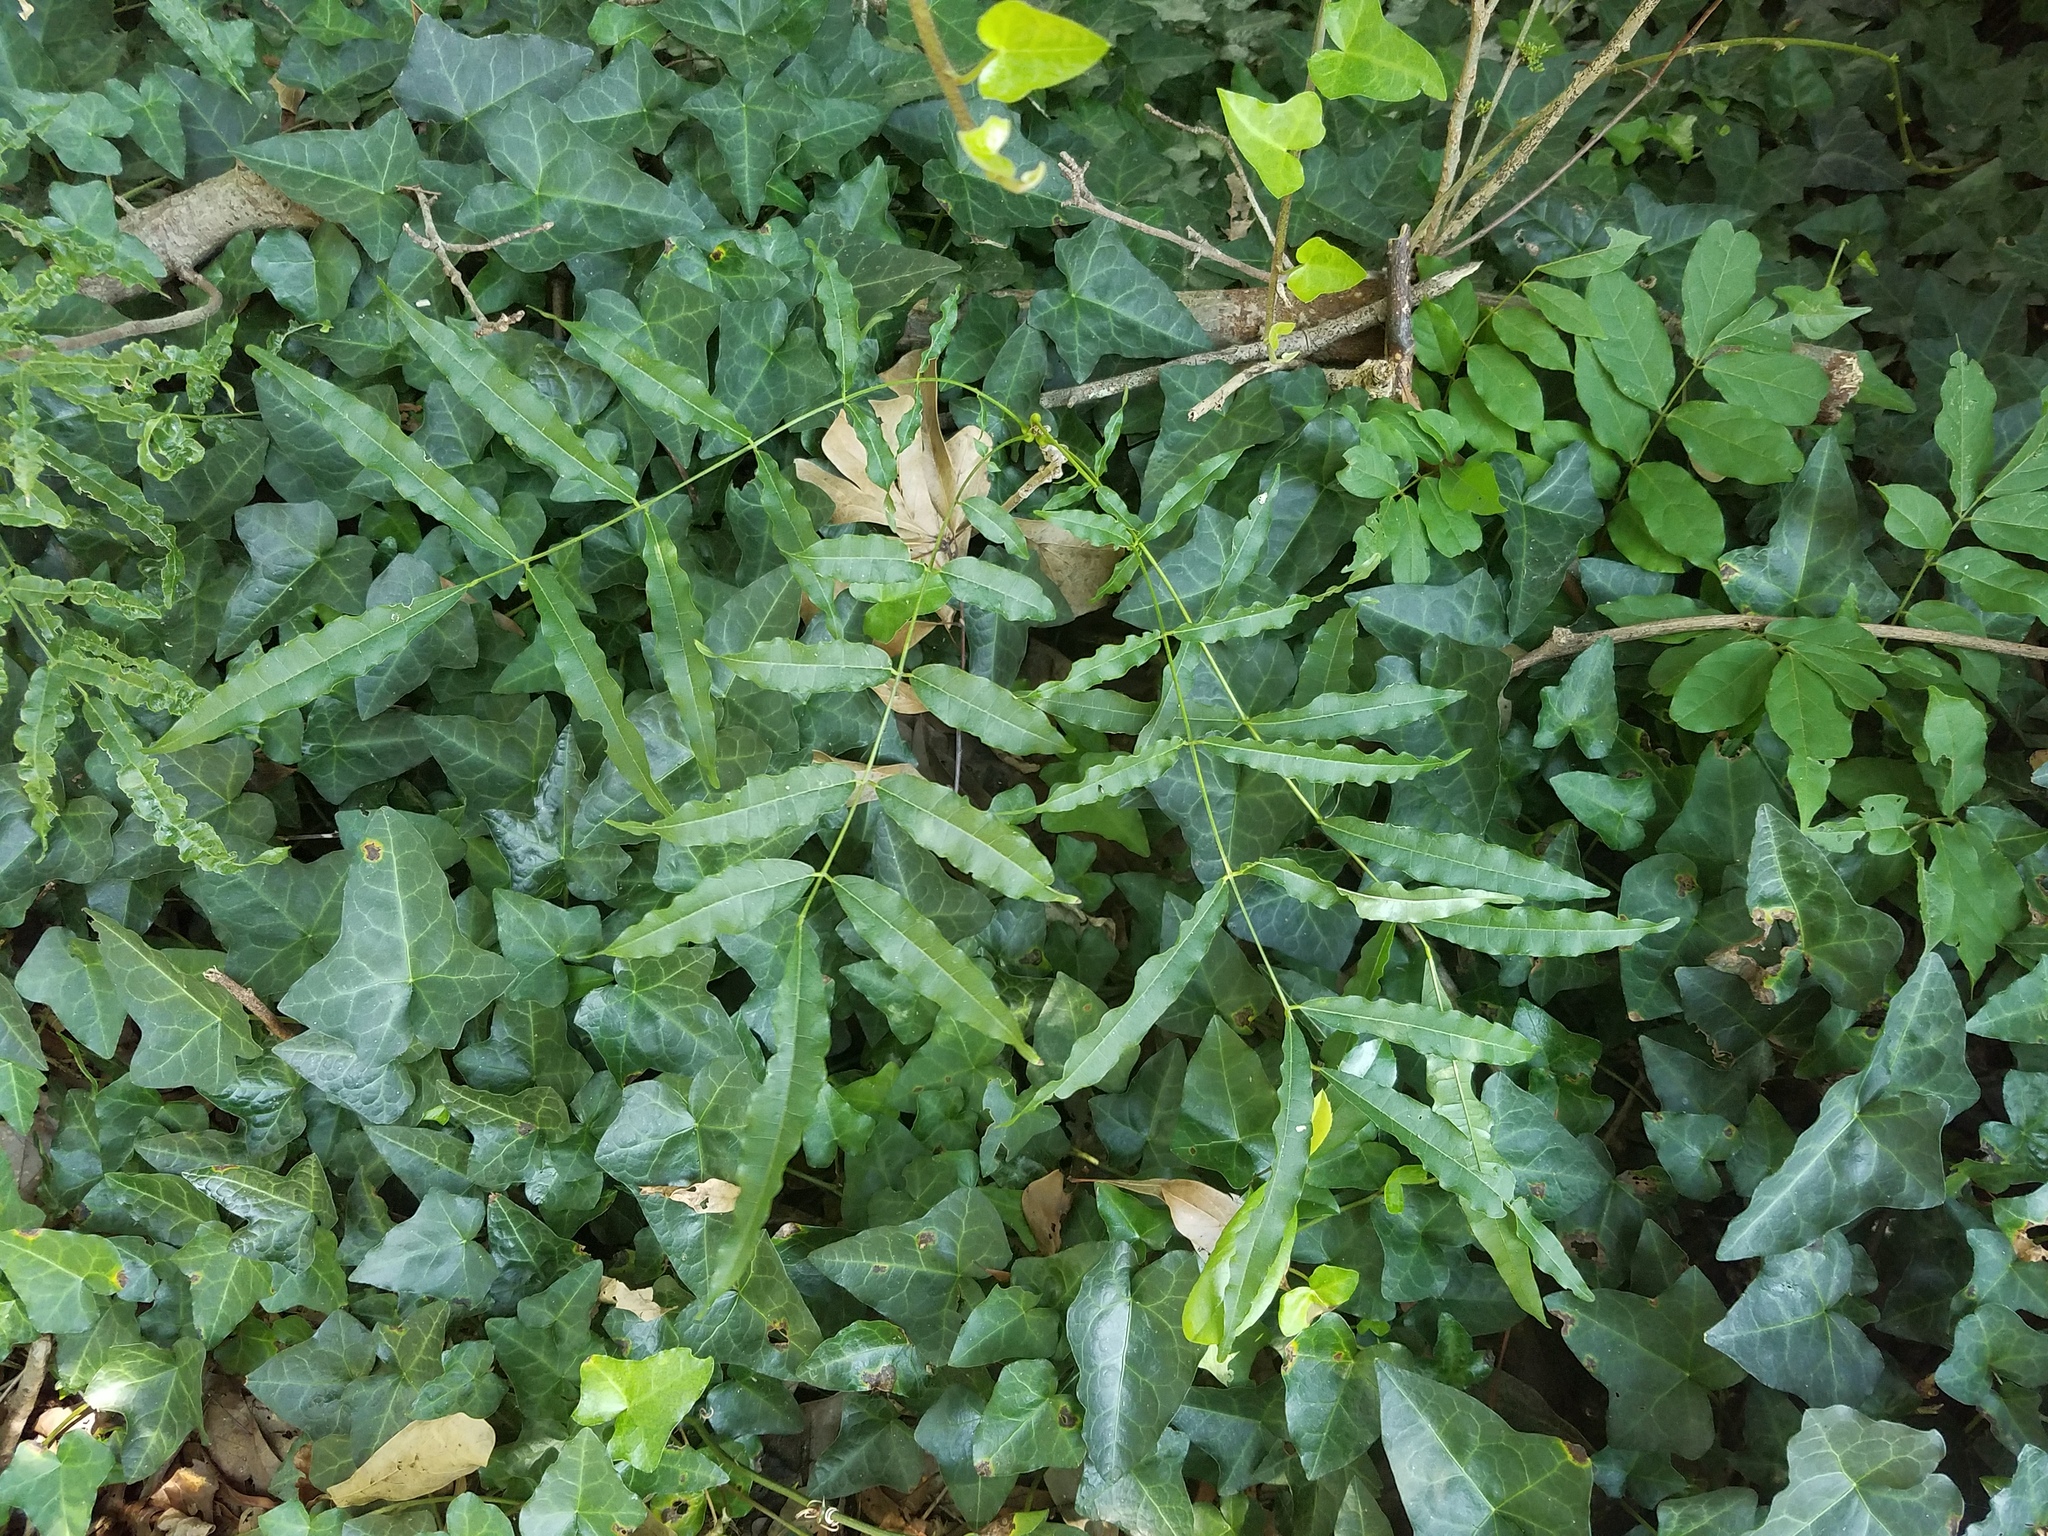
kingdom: Plantae
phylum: Tracheophyta
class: Magnoliopsida
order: Fabales
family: Fabaceae
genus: Wisteria
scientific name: Wisteria sinensis
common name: Chinese wisteria
